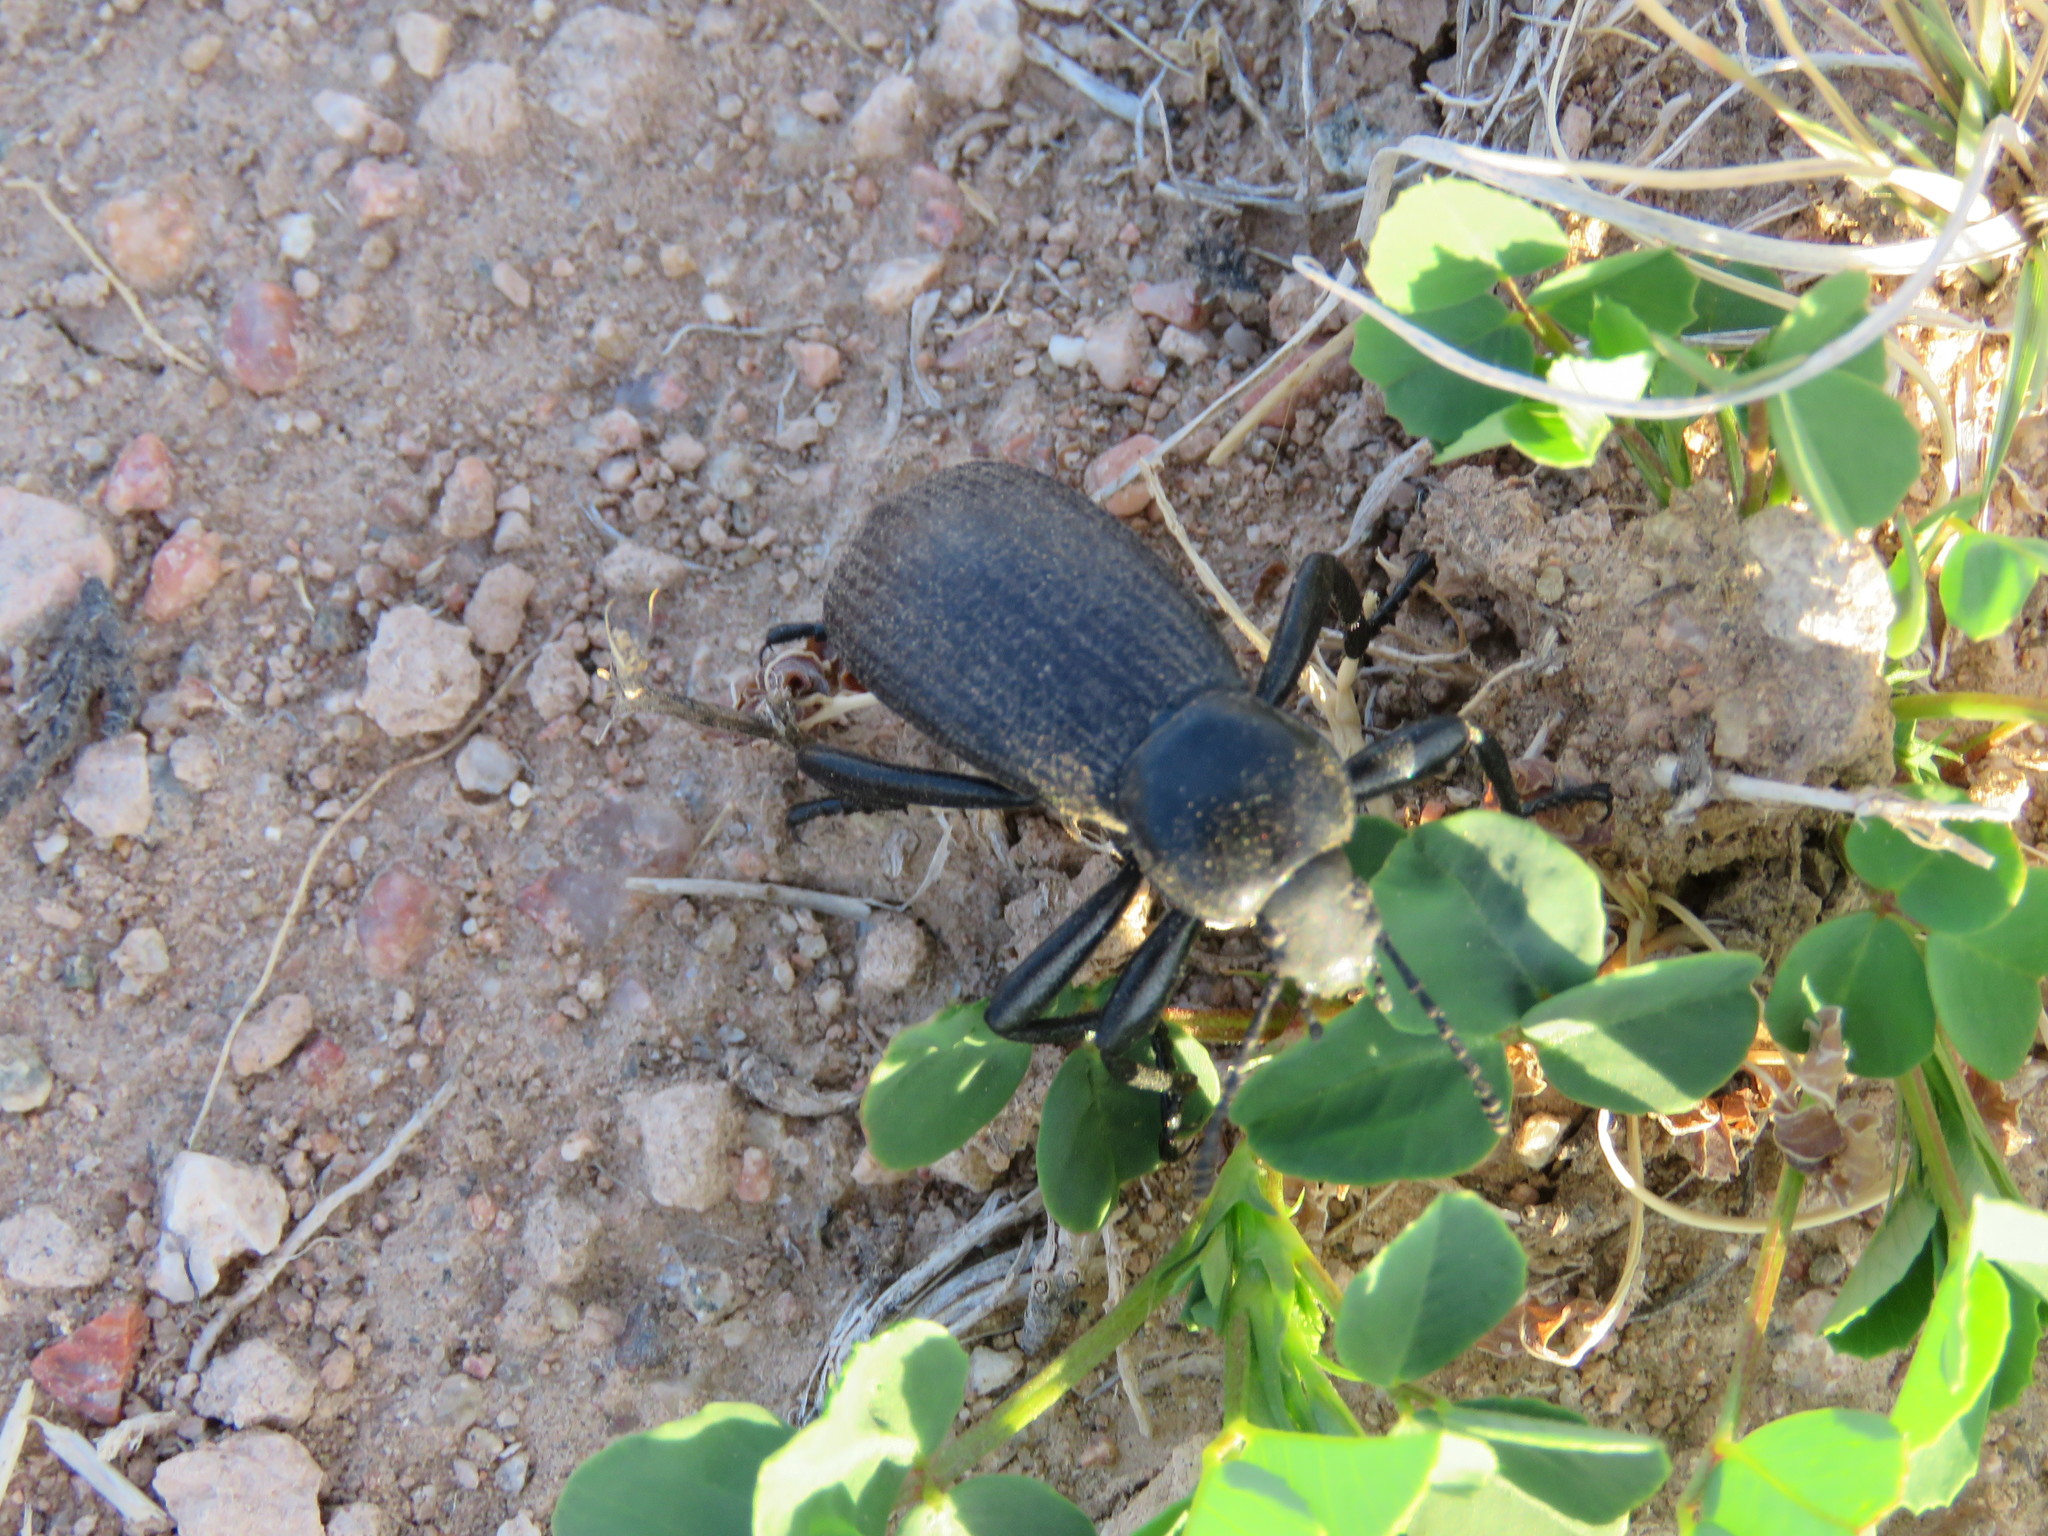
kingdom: Animalia
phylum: Arthropoda
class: Insecta
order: Coleoptera
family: Tenebrionidae
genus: Eleodes
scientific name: Eleodes obscura
